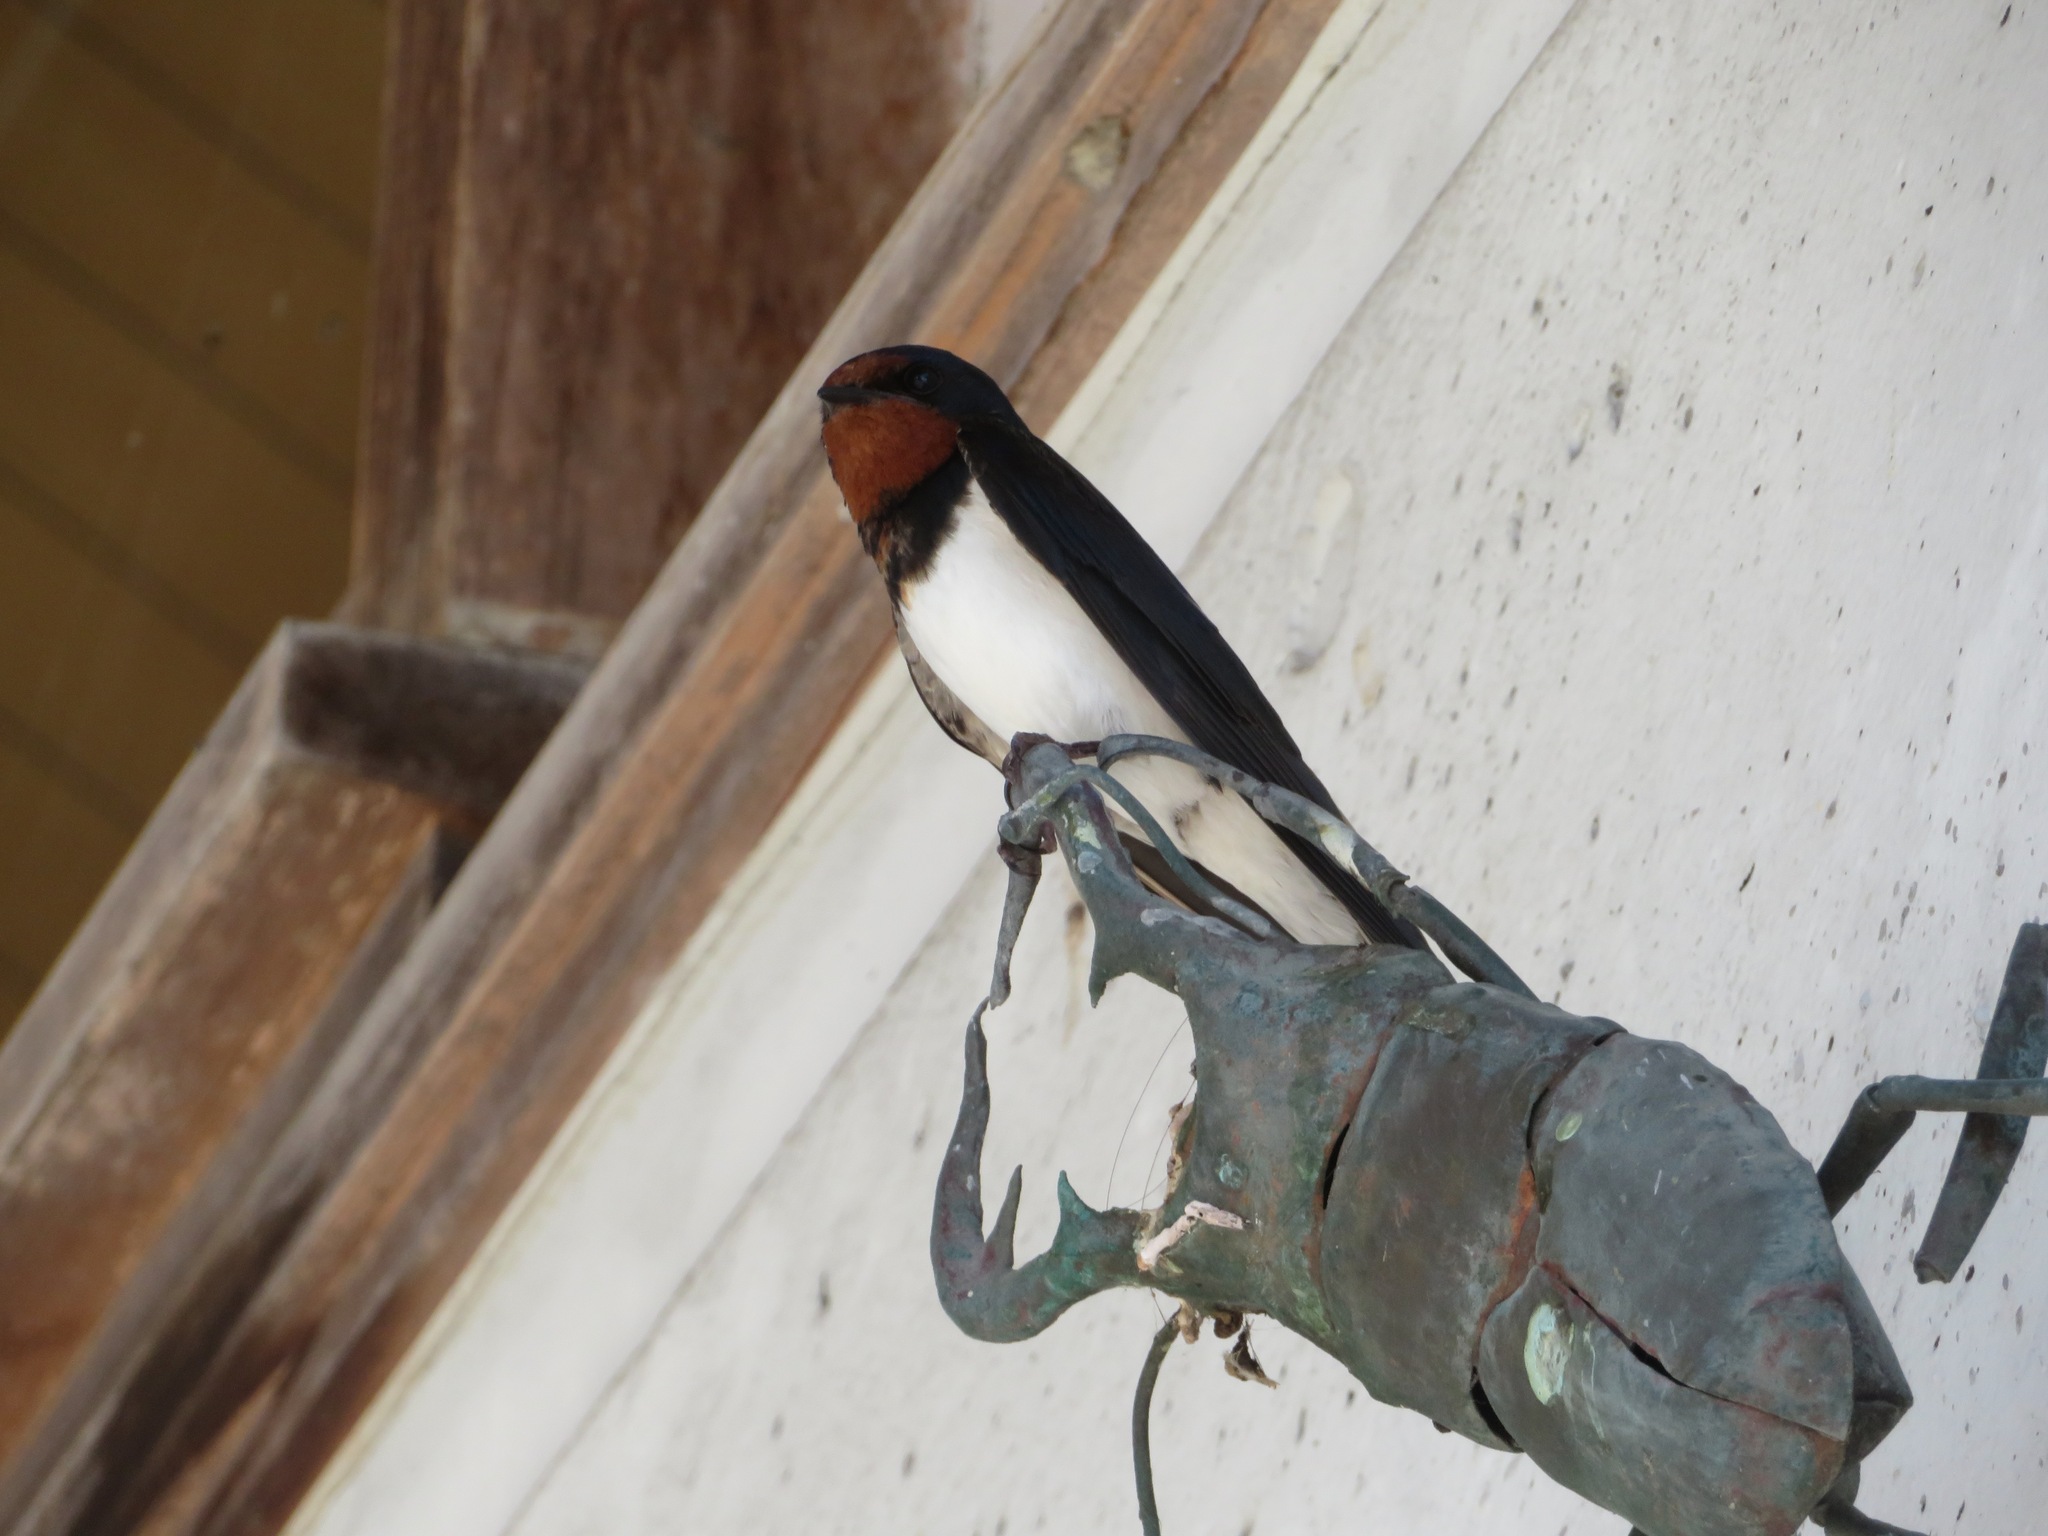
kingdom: Animalia
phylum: Chordata
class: Aves
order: Passeriformes
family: Hirundinidae
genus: Hirundo
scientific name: Hirundo rustica
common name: Barn swallow
